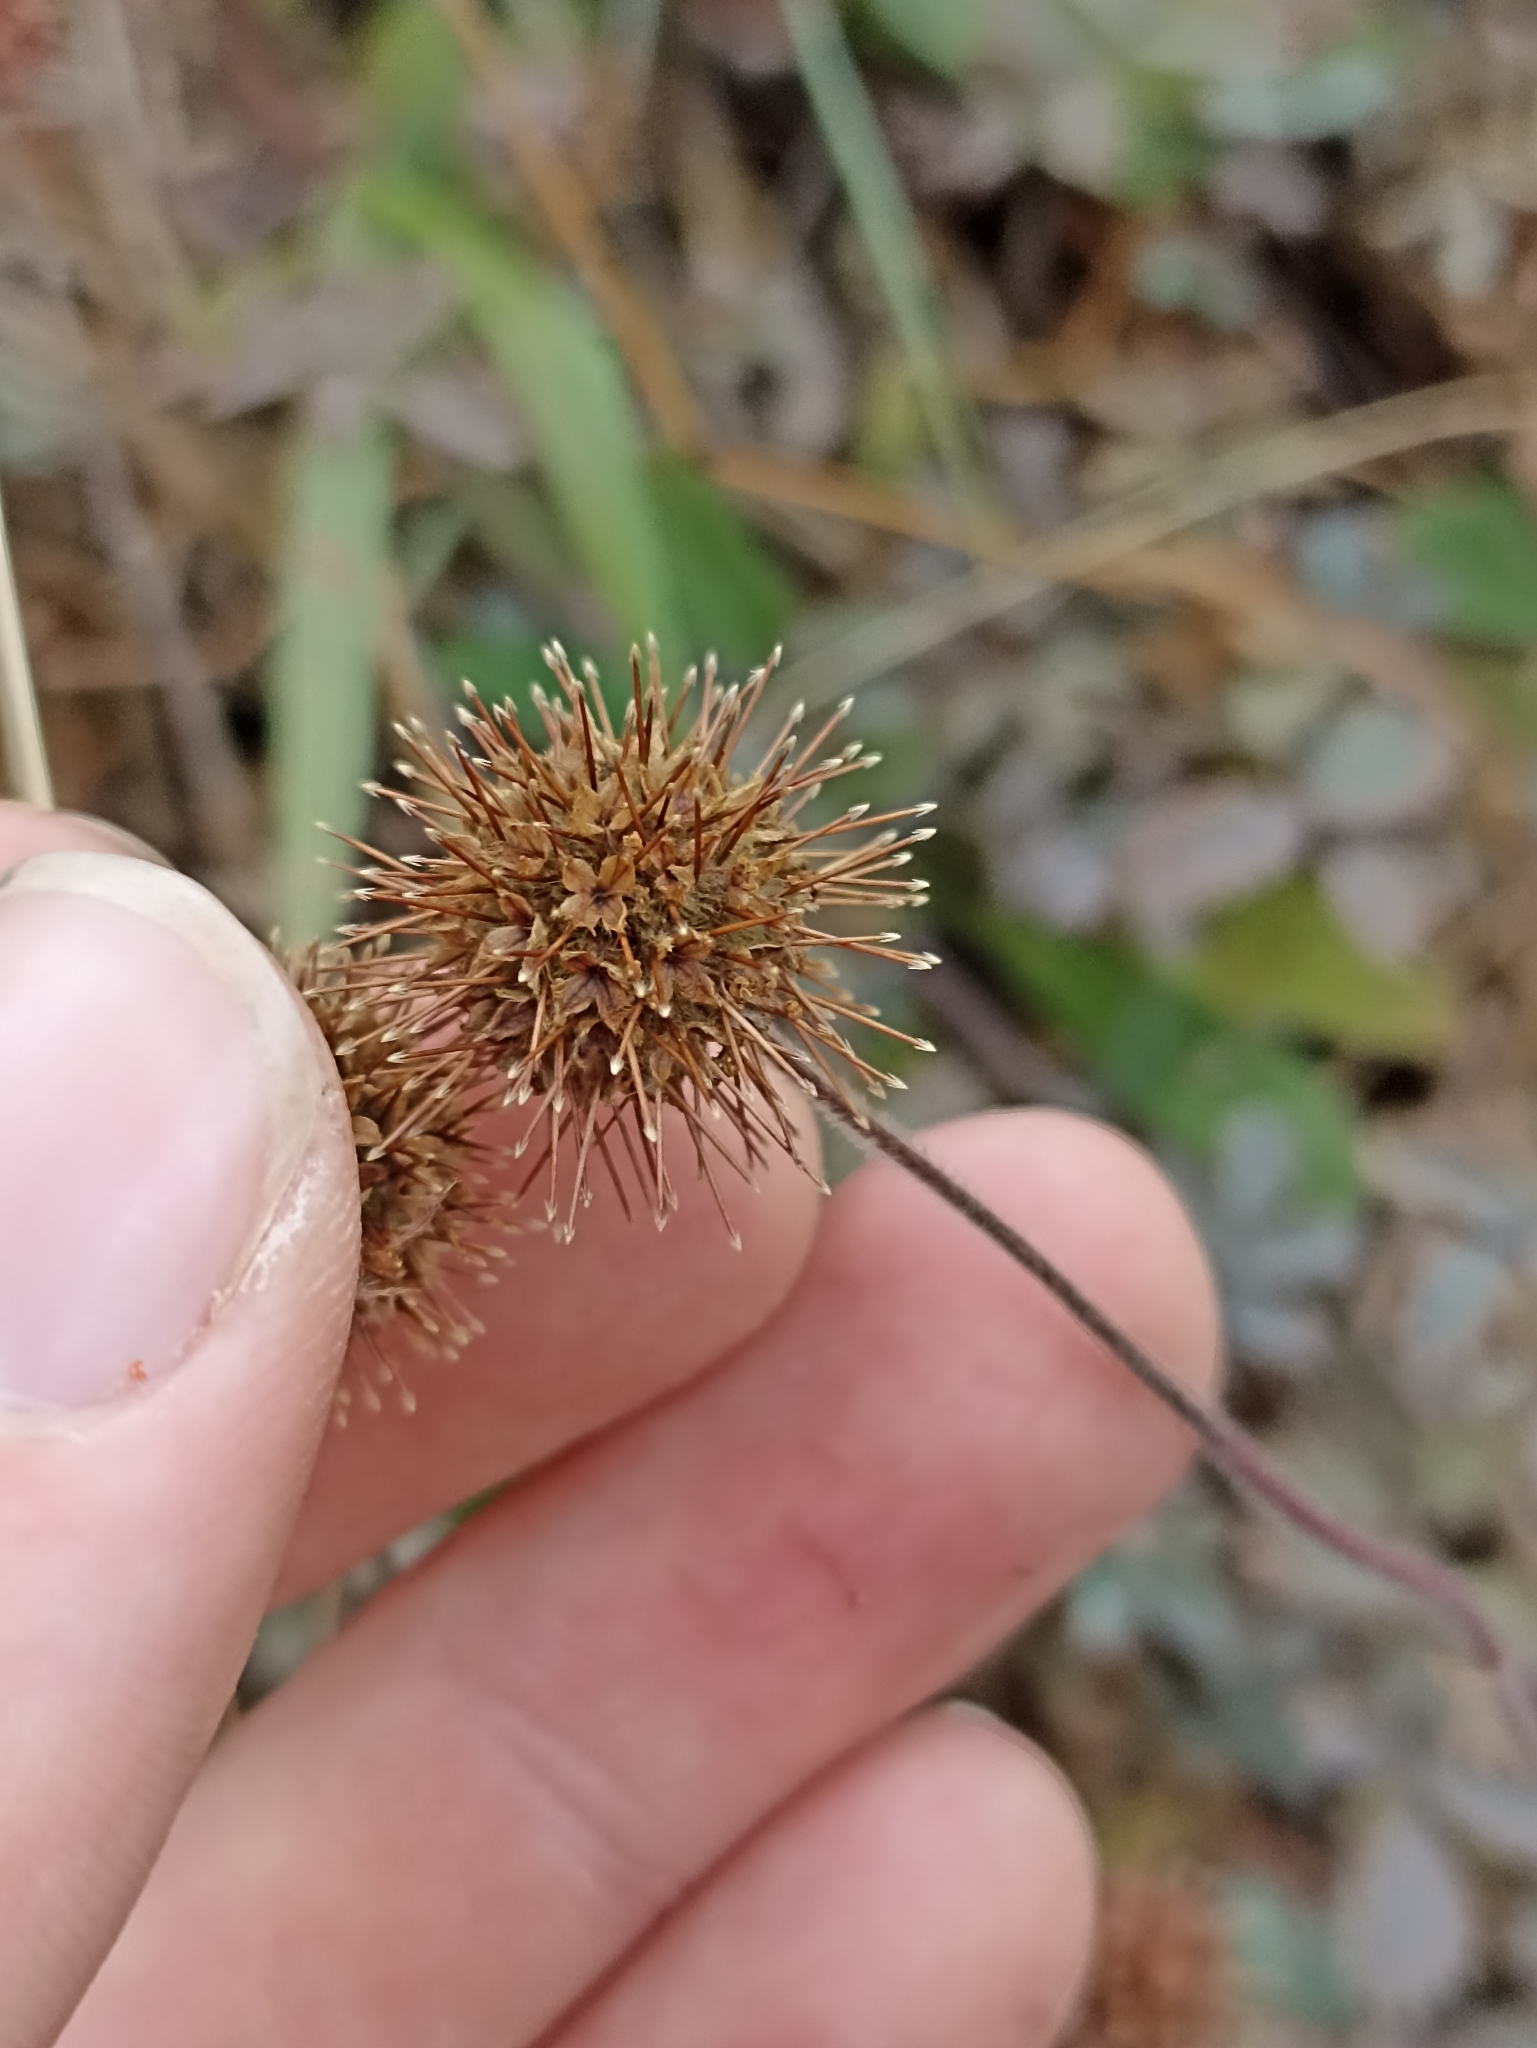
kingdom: Plantae
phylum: Tracheophyta
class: Magnoliopsida
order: Rosales
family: Rosaceae
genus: Acaena
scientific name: Acaena caesiiglauca
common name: Glaucous pirri-pirri-bur
